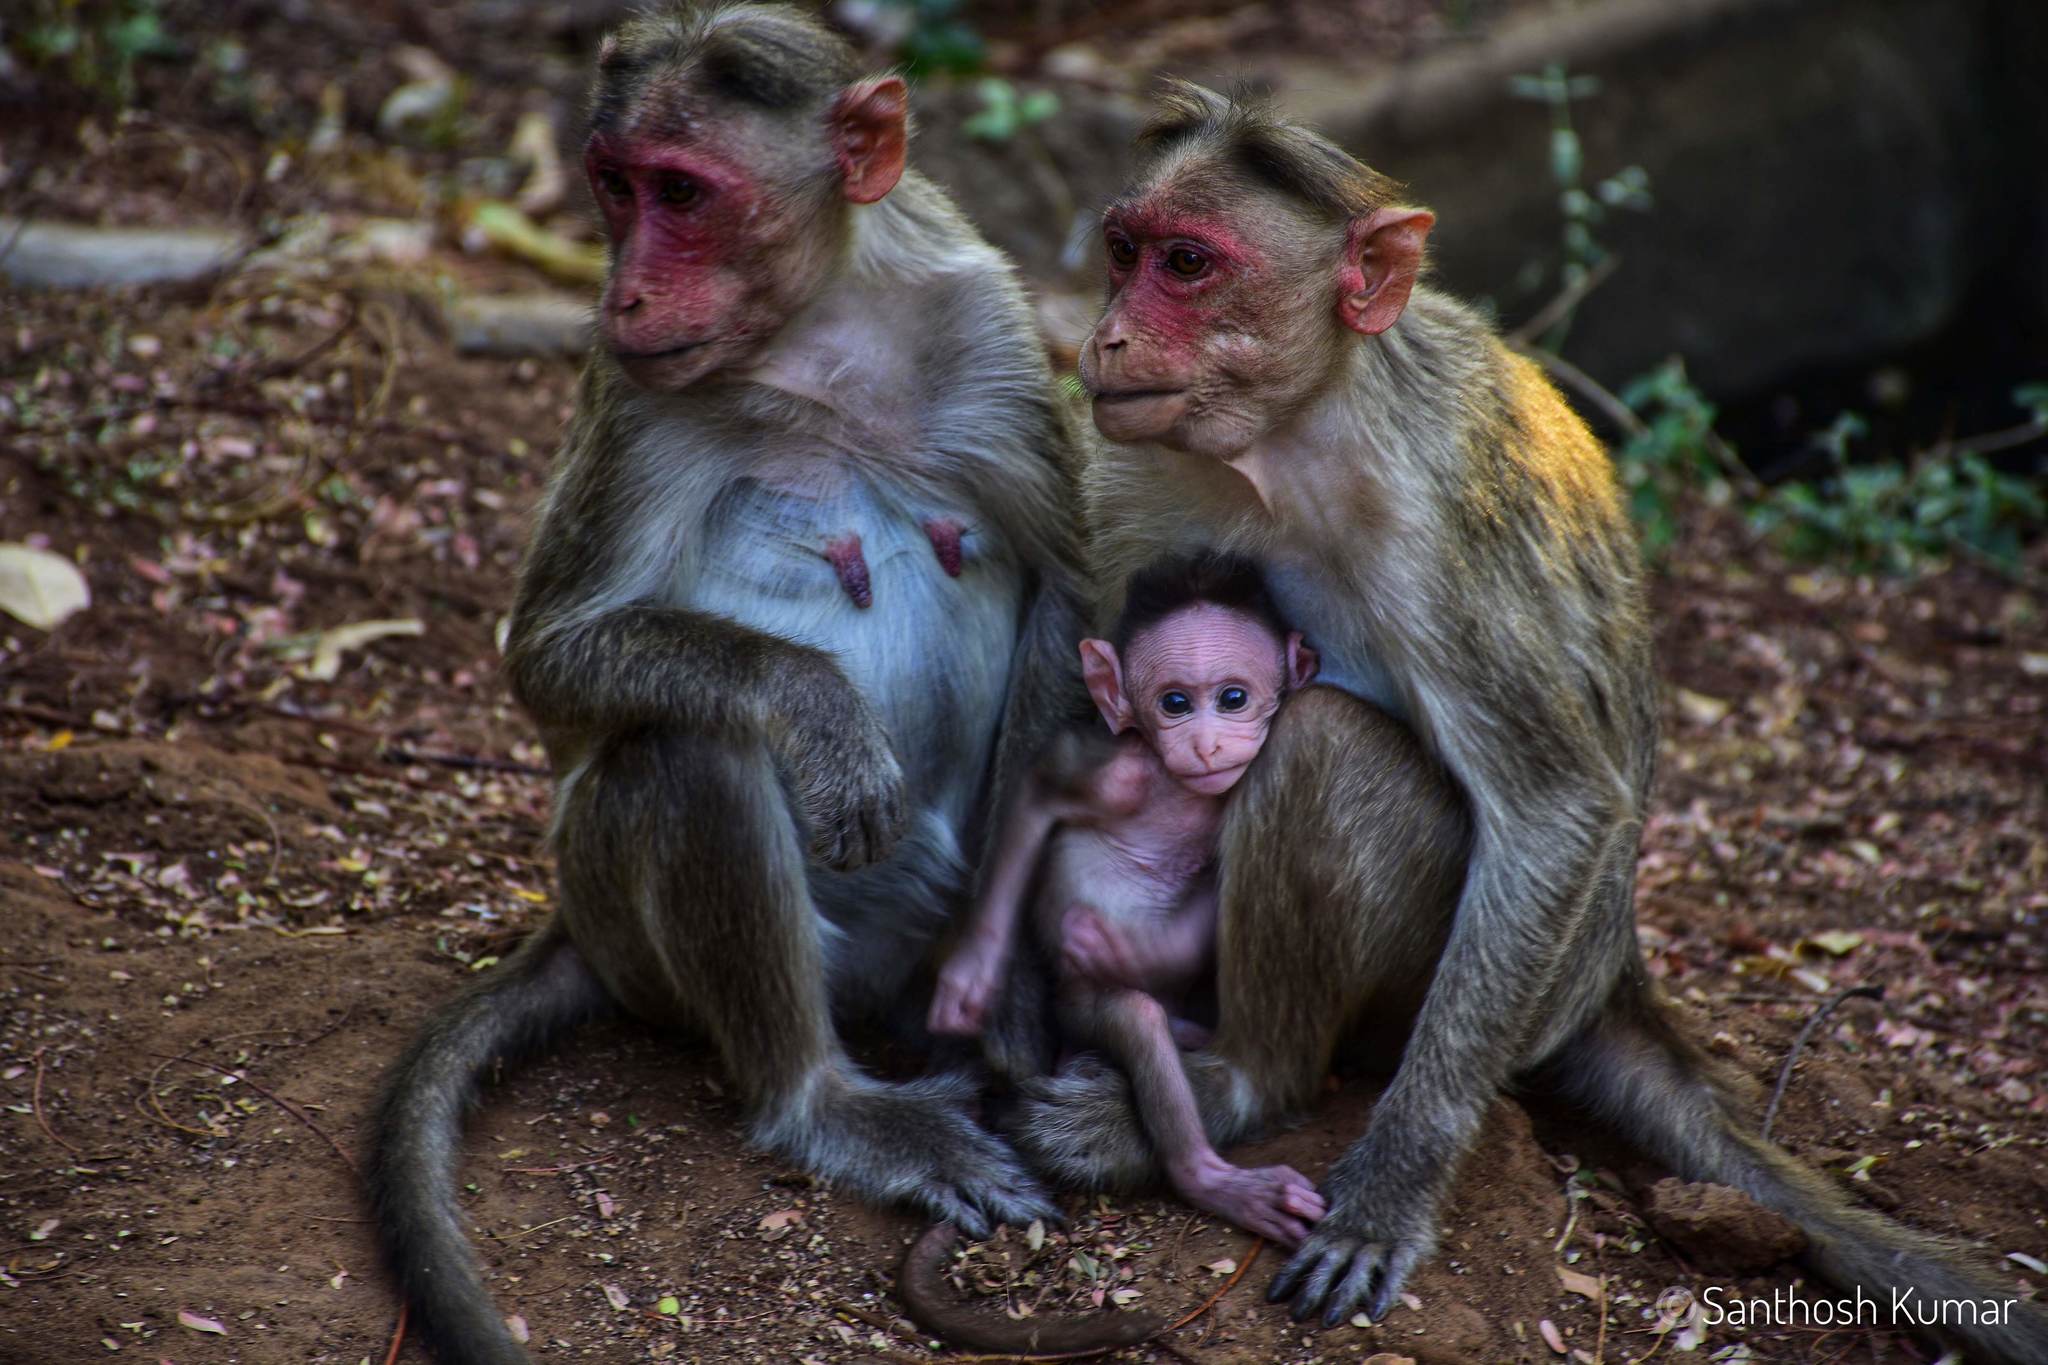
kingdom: Animalia
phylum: Chordata
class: Mammalia
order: Primates
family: Cercopithecidae
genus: Macaca
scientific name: Macaca radiata
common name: Bonnet macaque
